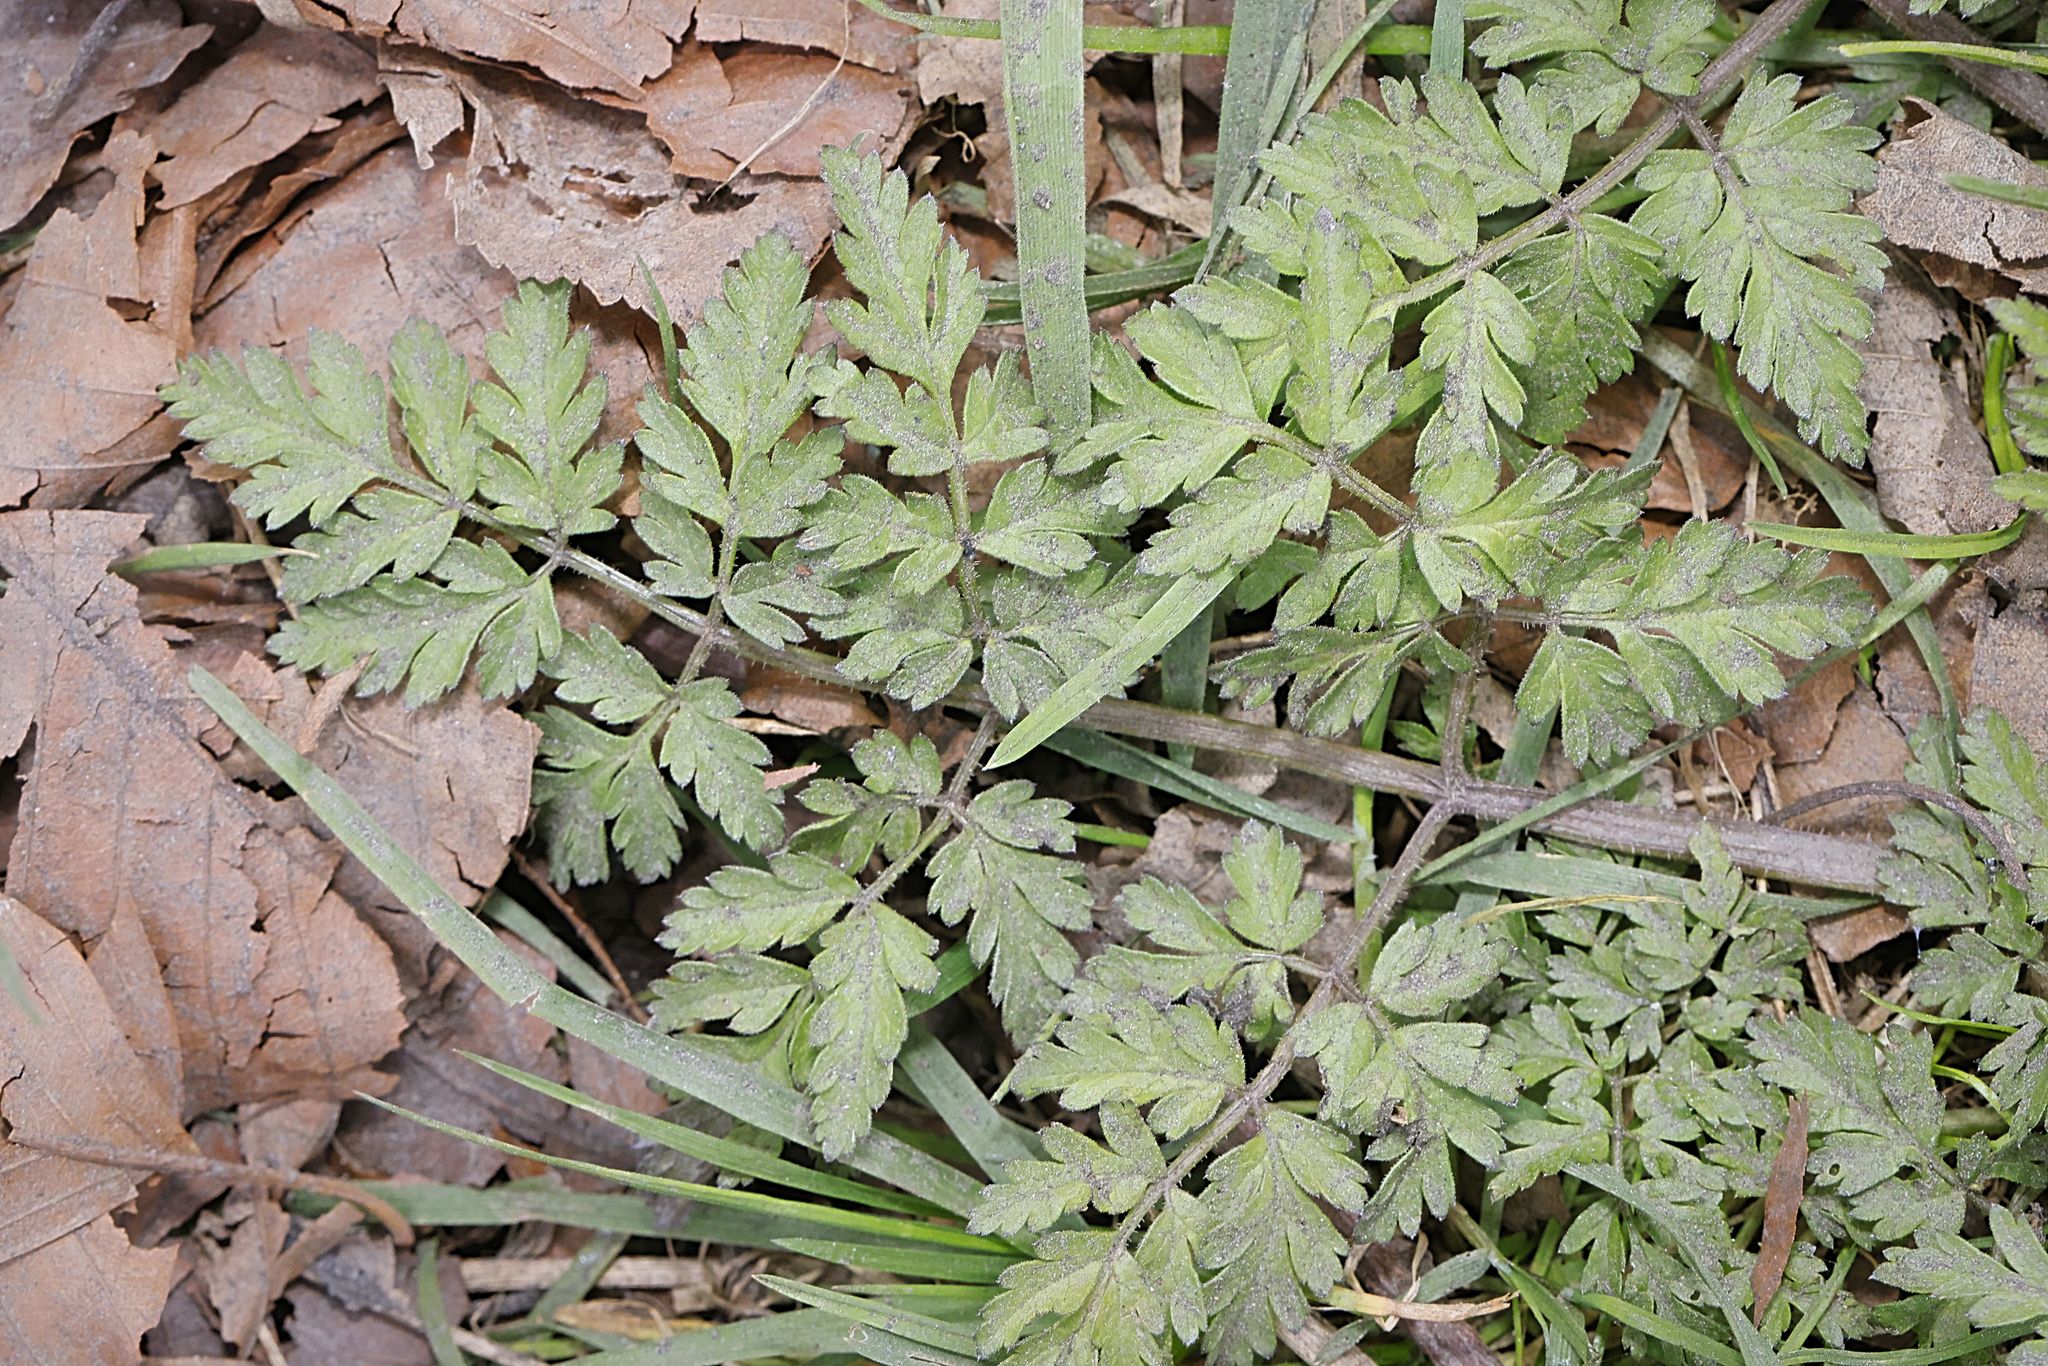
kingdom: Plantae
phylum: Tracheophyta
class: Magnoliopsida
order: Apiales
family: Apiaceae
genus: Anthriscus
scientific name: Anthriscus sylvestris
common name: Cow parsley
